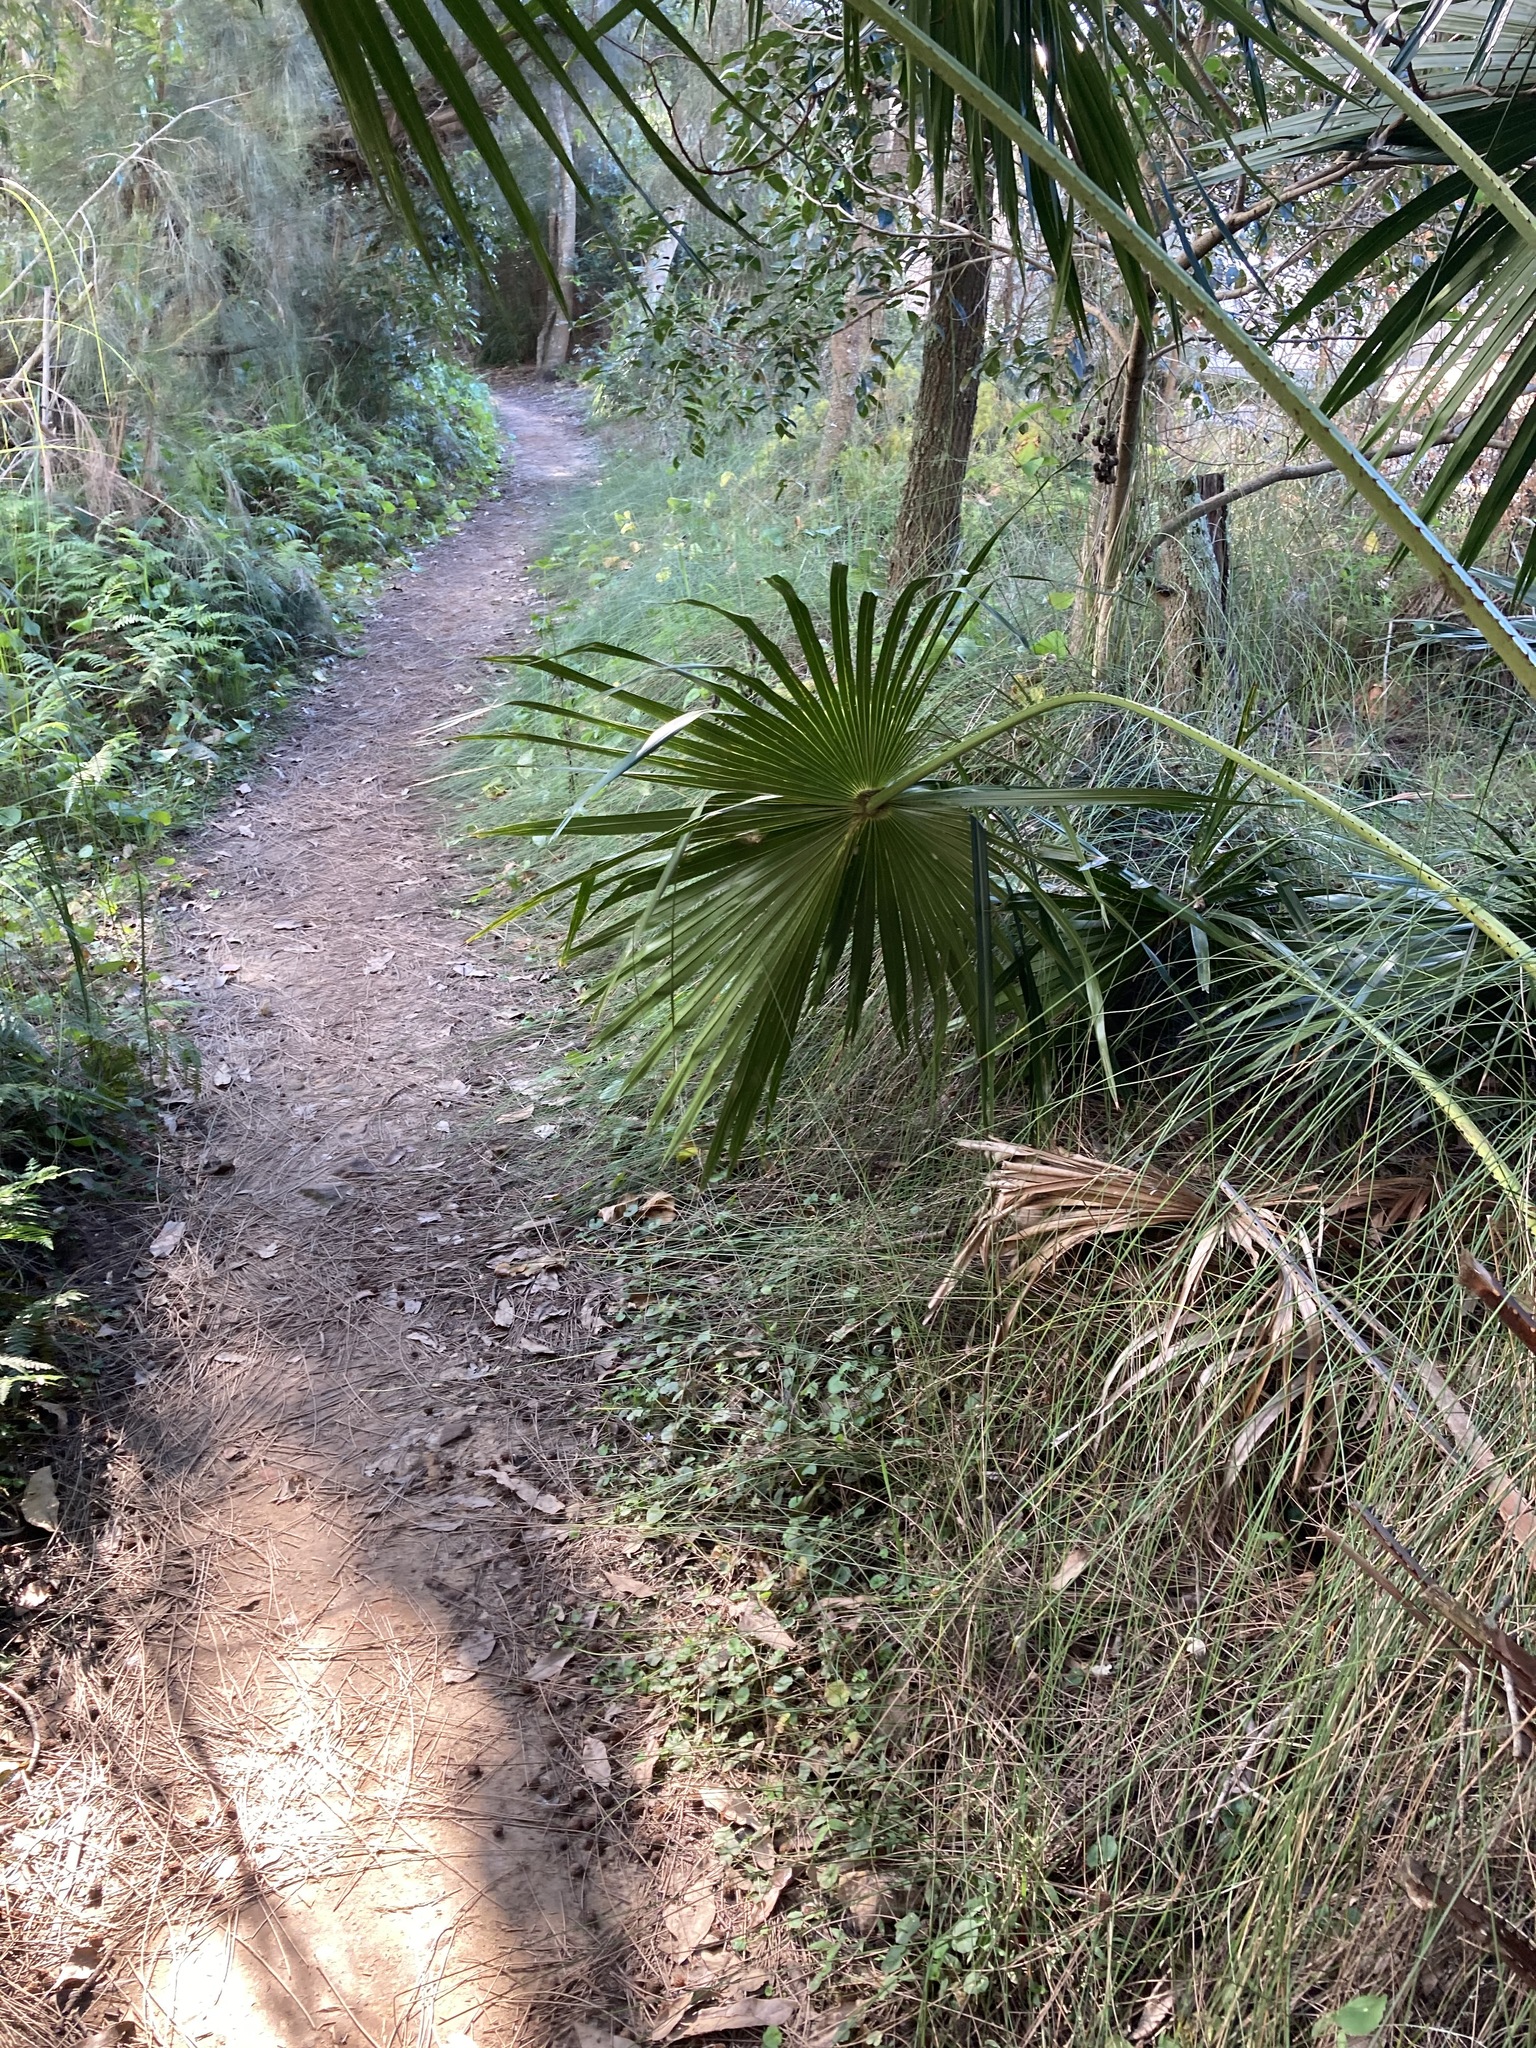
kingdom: Plantae
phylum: Tracheophyta
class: Liliopsida
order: Arecales
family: Arecaceae
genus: Livistona
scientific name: Livistona australis
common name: Cabbage fan palm
